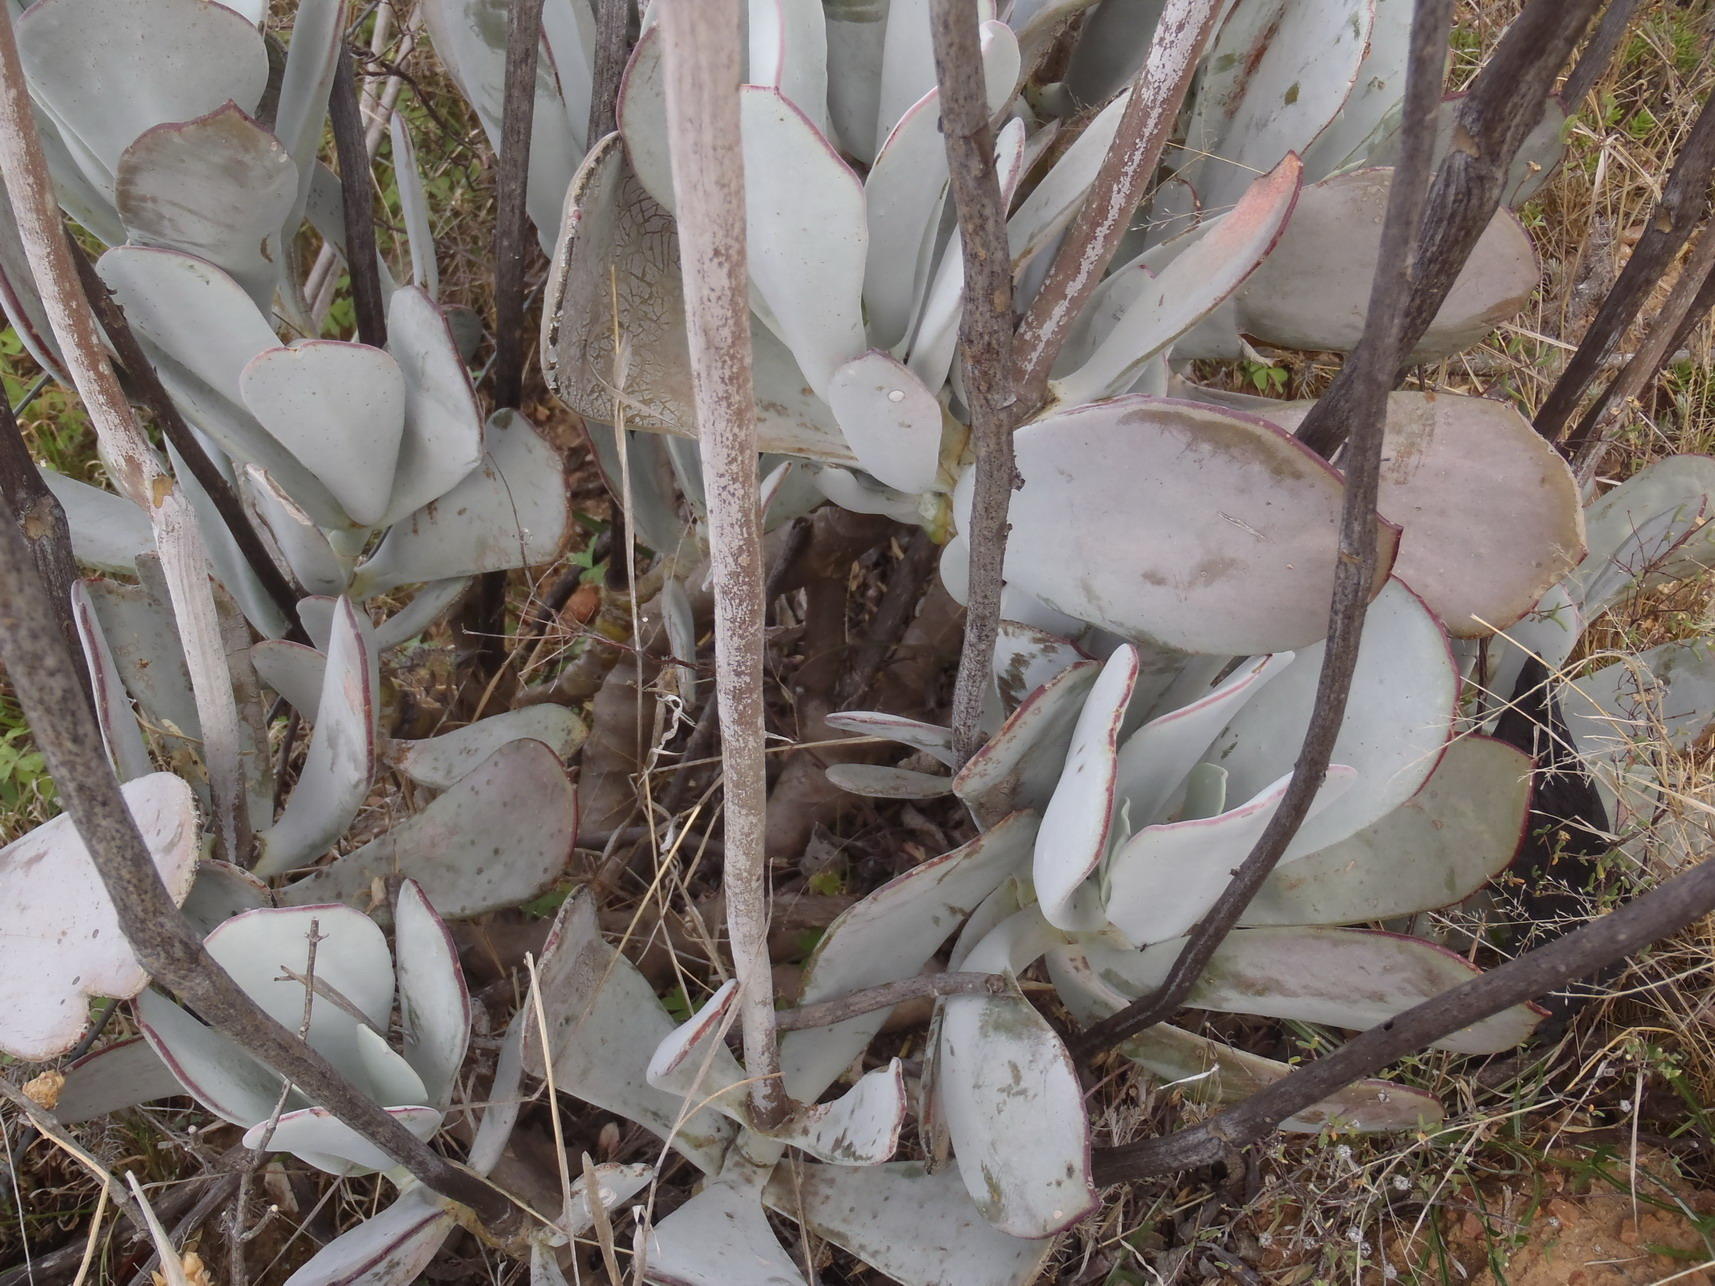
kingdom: Plantae
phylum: Tracheophyta
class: Magnoliopsida
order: Saxifragales
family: Crassulaceae
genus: Cotyledon
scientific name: Cotyledon orbiculata
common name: Pig's ear
